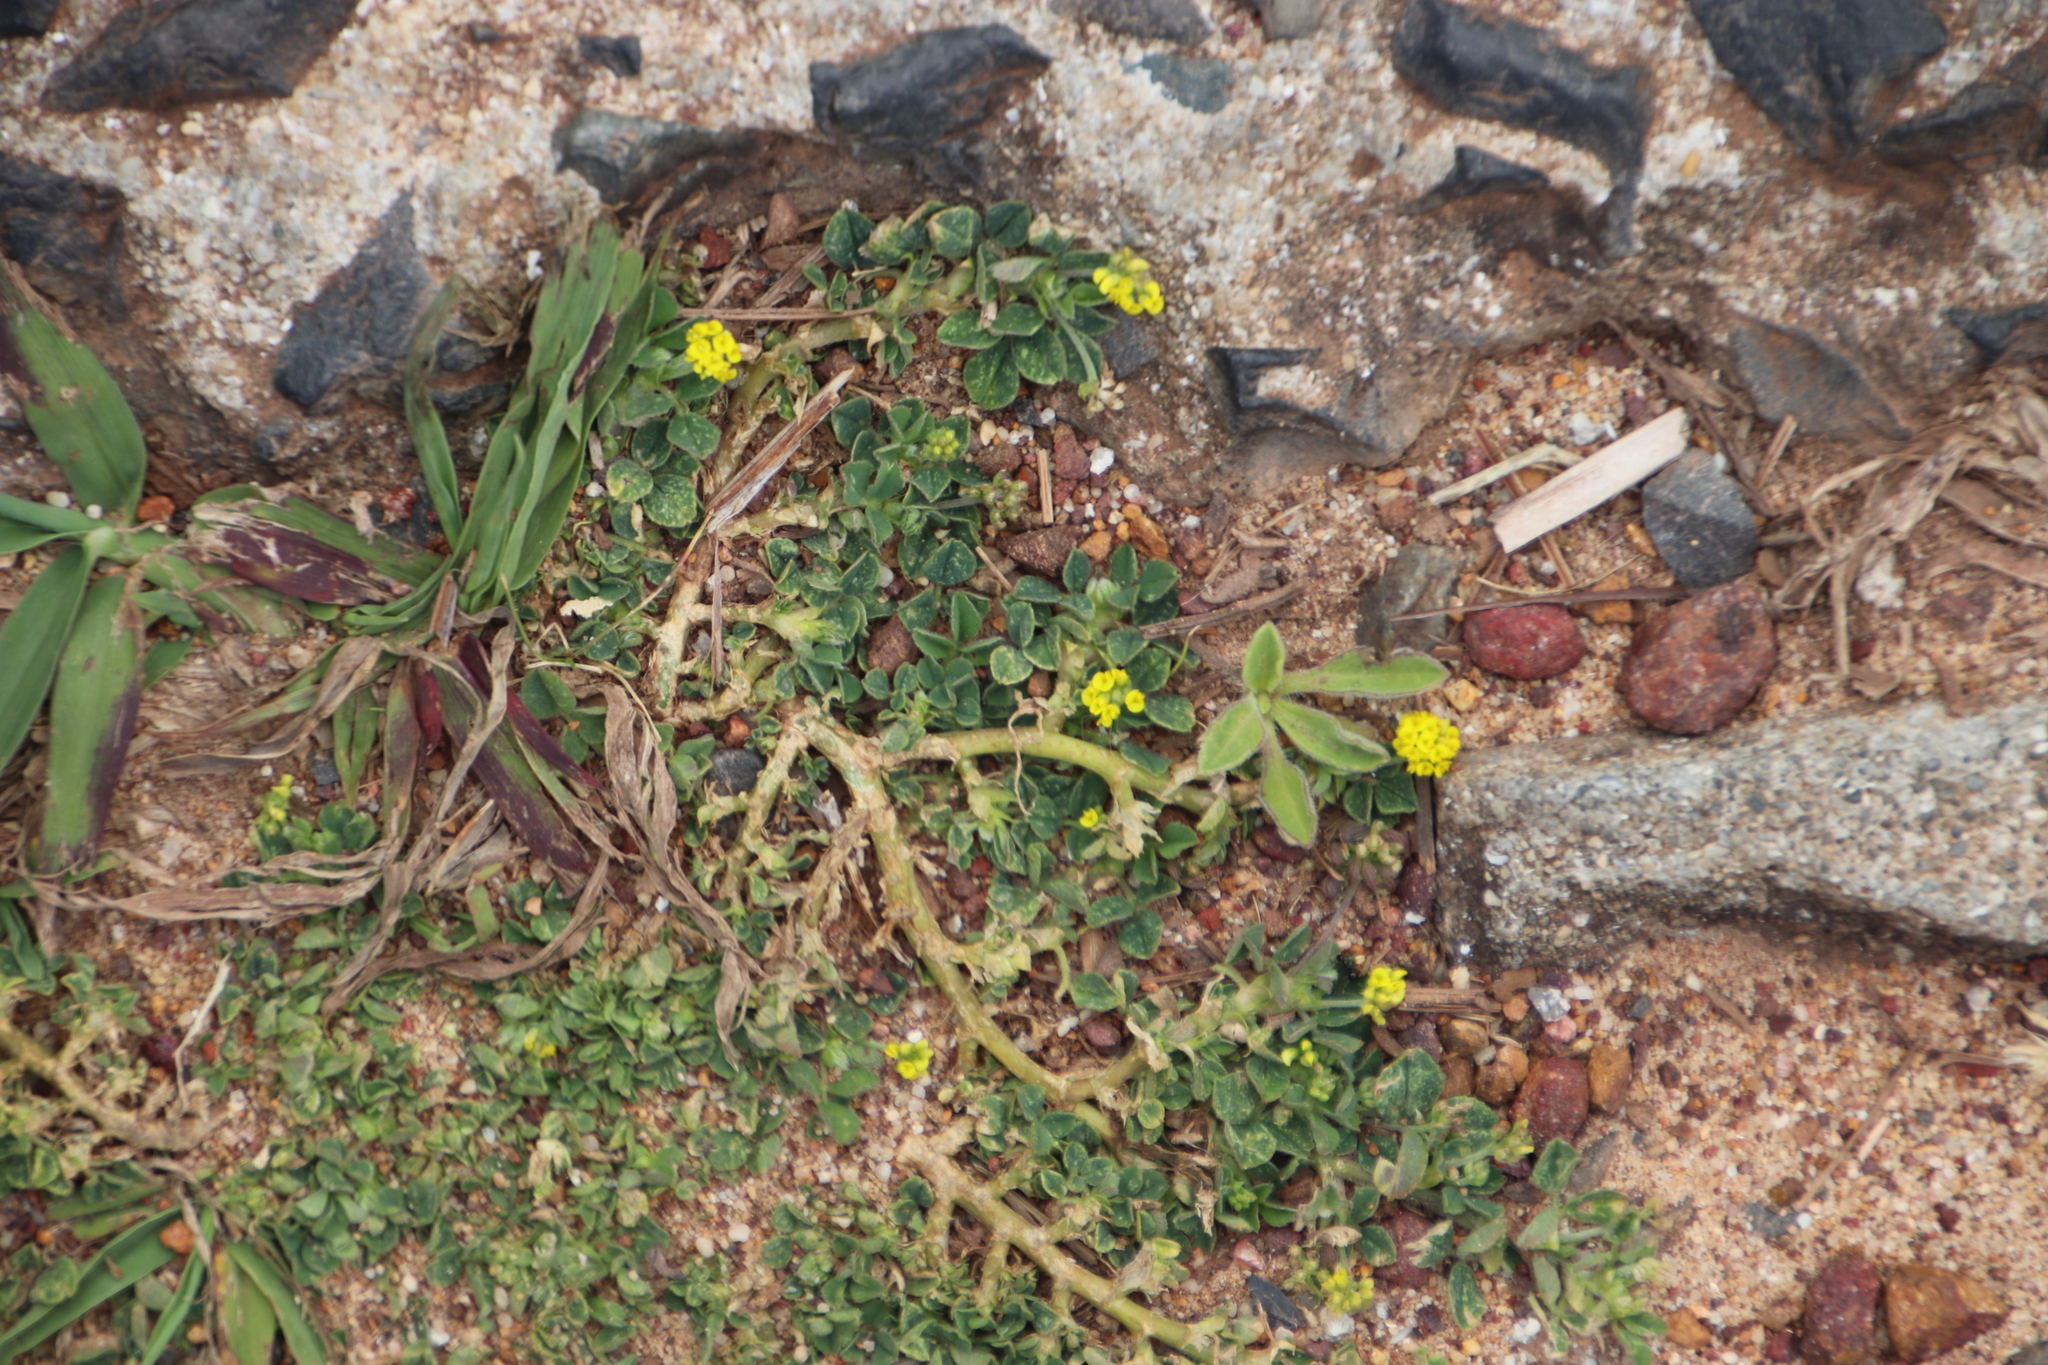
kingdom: Plantae
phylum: Tracheophyta
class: Magnoliopsida
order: Fabales
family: Fabaceae
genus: Medicago
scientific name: Medicago lupulina
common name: Black medick
